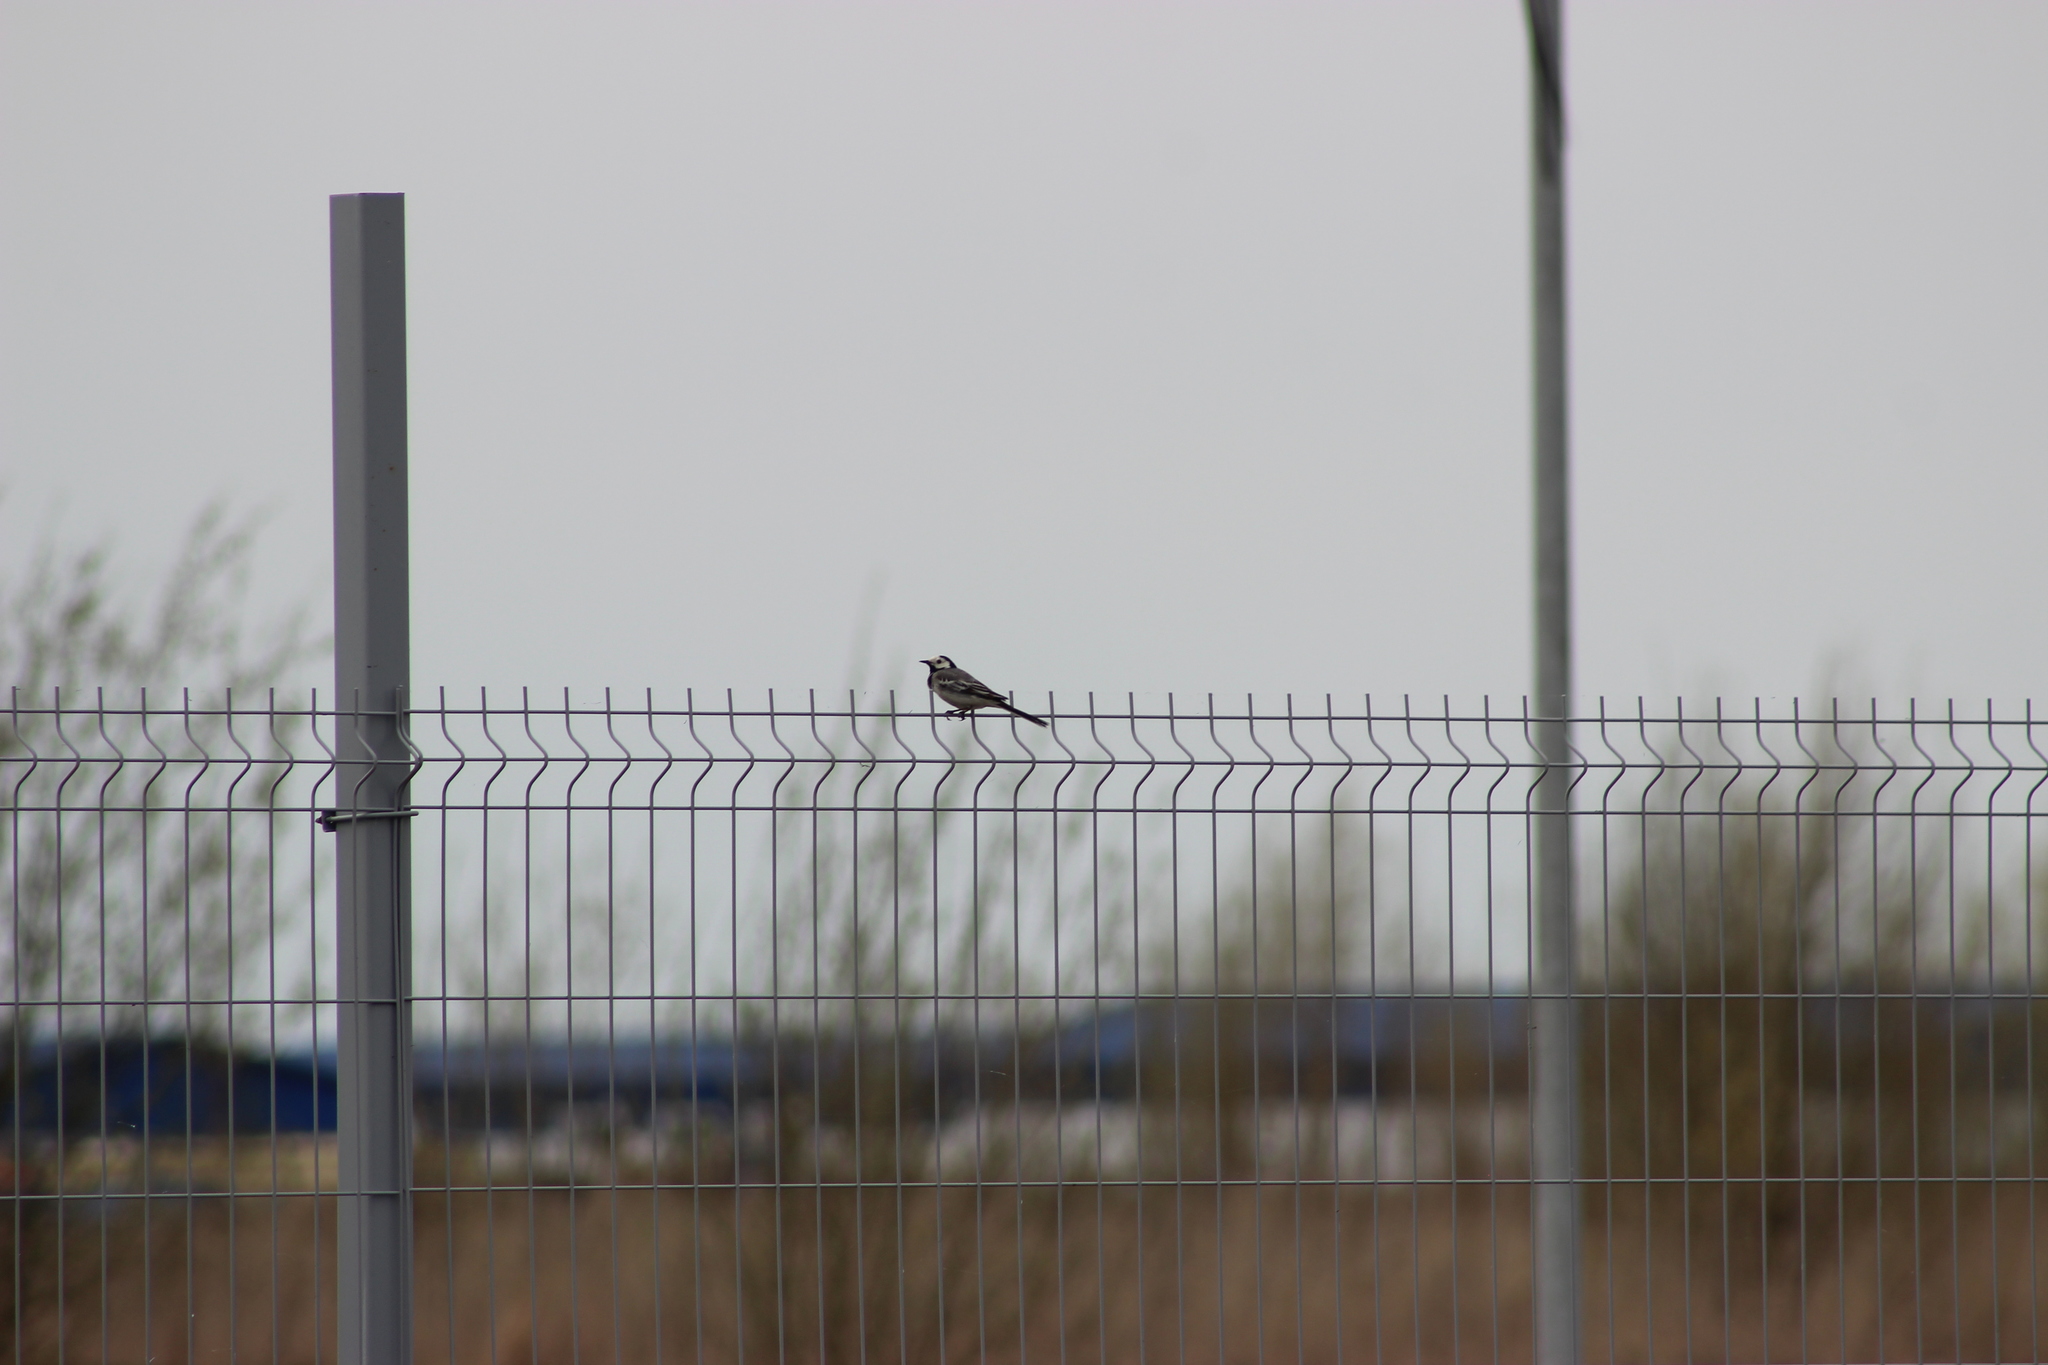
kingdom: Animalia
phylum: Chordata
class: Aves
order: Passeriformes
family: Motacillidae
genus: Motacilla
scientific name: Motacilla alba
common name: White wagtail
